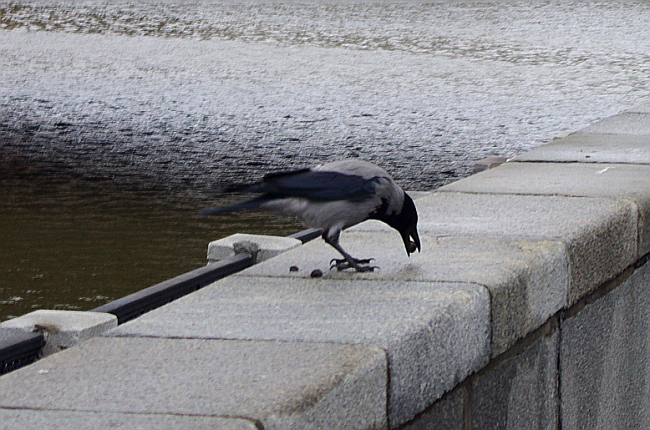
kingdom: Animalia
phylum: Chordata
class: Aves
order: Passeriformes
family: Corvidae
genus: Corvus
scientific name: Corvus cornix
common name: Hooded crow
